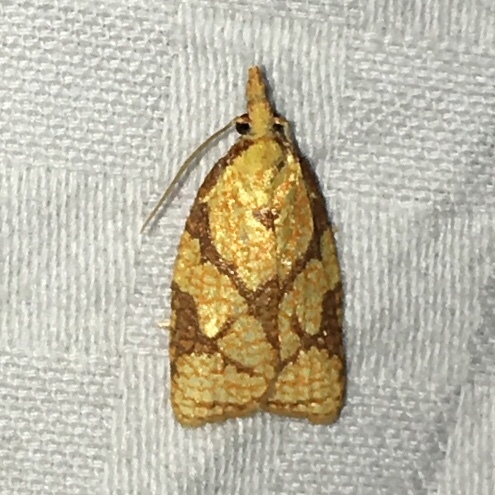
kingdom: Animalia
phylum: Arthropoda
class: Insecta
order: Lepidoptera
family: Tortricidae
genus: Cenopis
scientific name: Cenopis reticulatana
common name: Reticulated fruitworm moth
